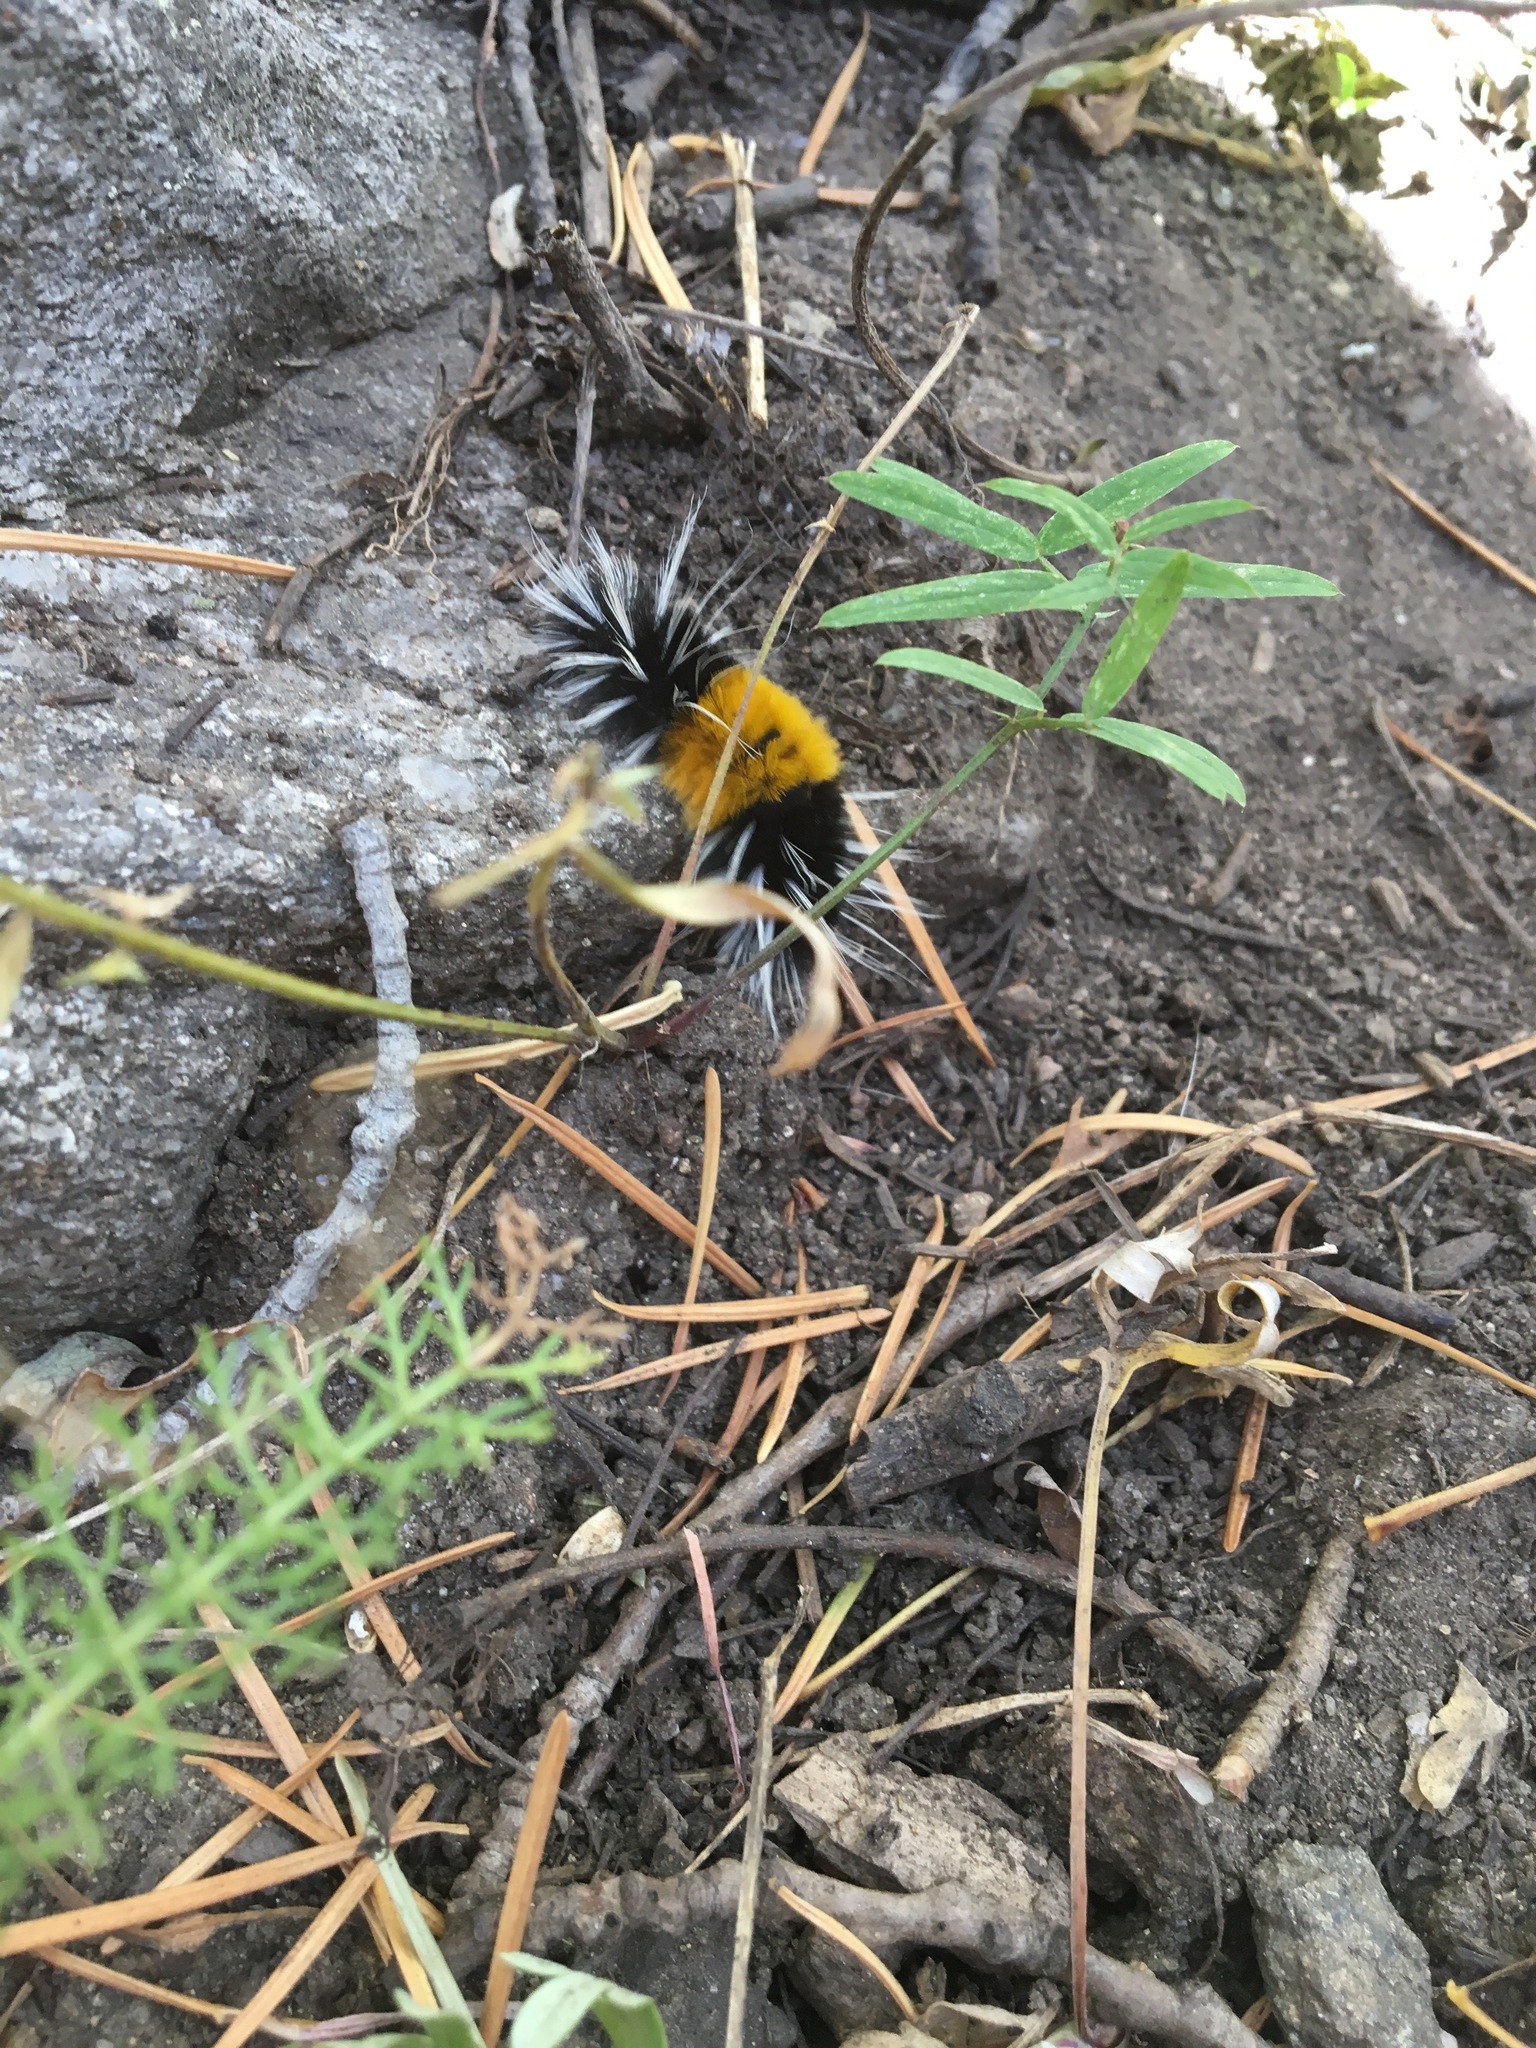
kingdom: Animalia
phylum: Arthropoda
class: Insecta
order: Lepidoptera
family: Erebidae
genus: Lophocampa
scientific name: Lophocampa maculata
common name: Spotted tussock moth
